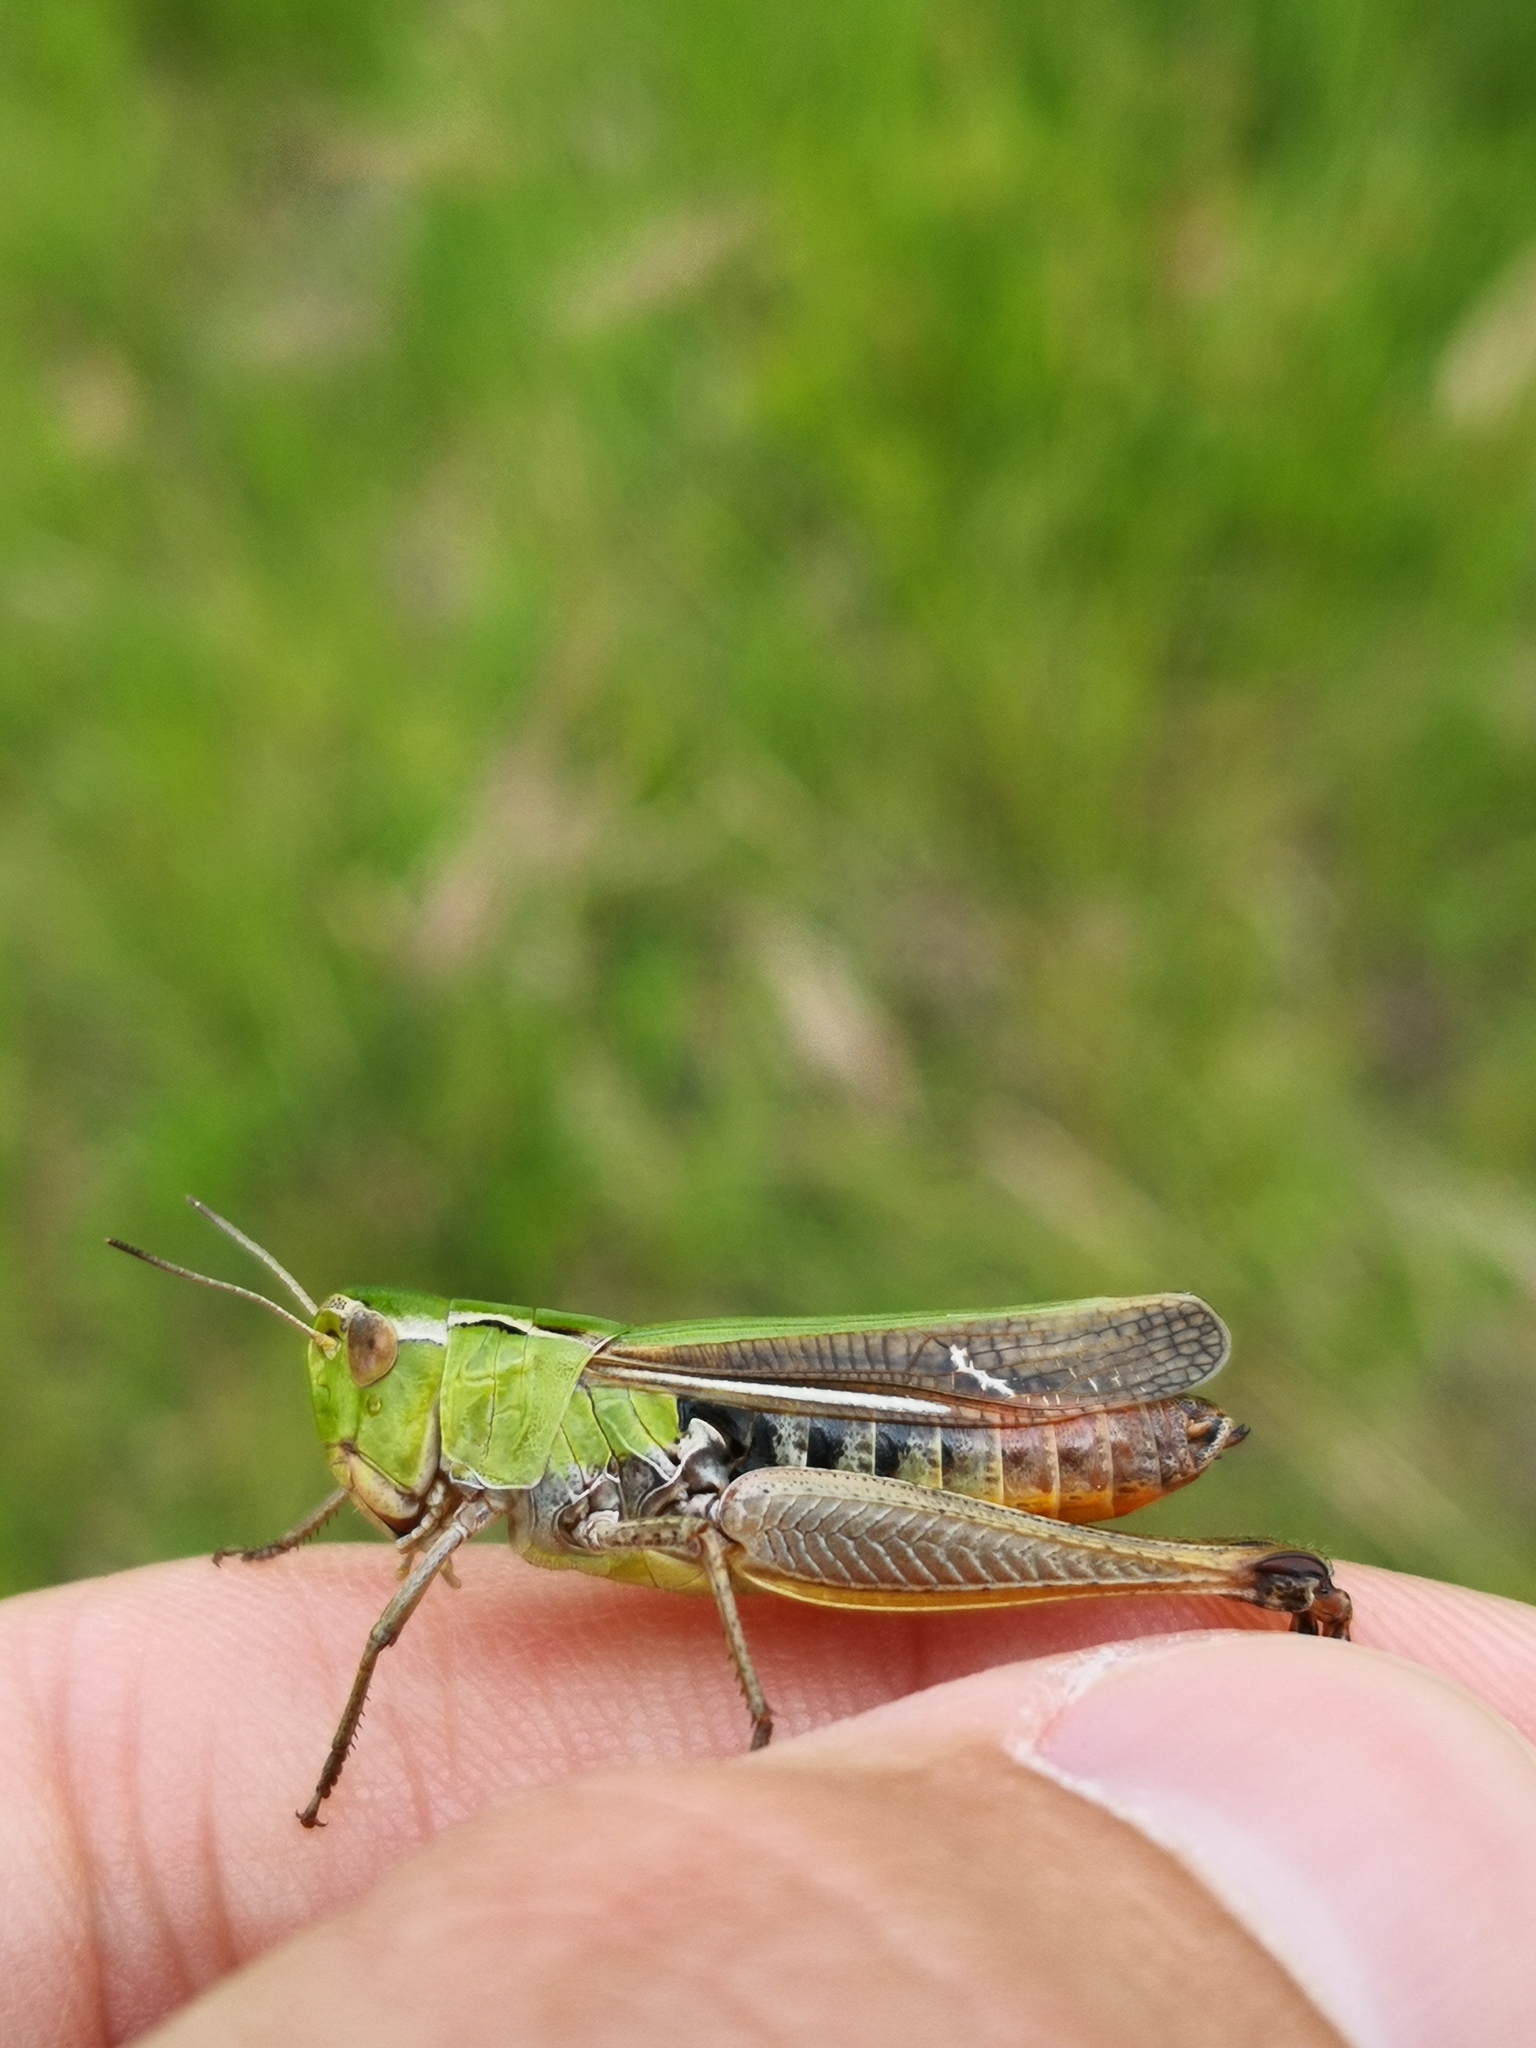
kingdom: Animalia
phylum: Arthropoda
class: Insecta
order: Orthoptera
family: Acrididae
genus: Stenobothrus
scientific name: Stenobothrus lineatus
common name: Stripe-winged grasshopper
